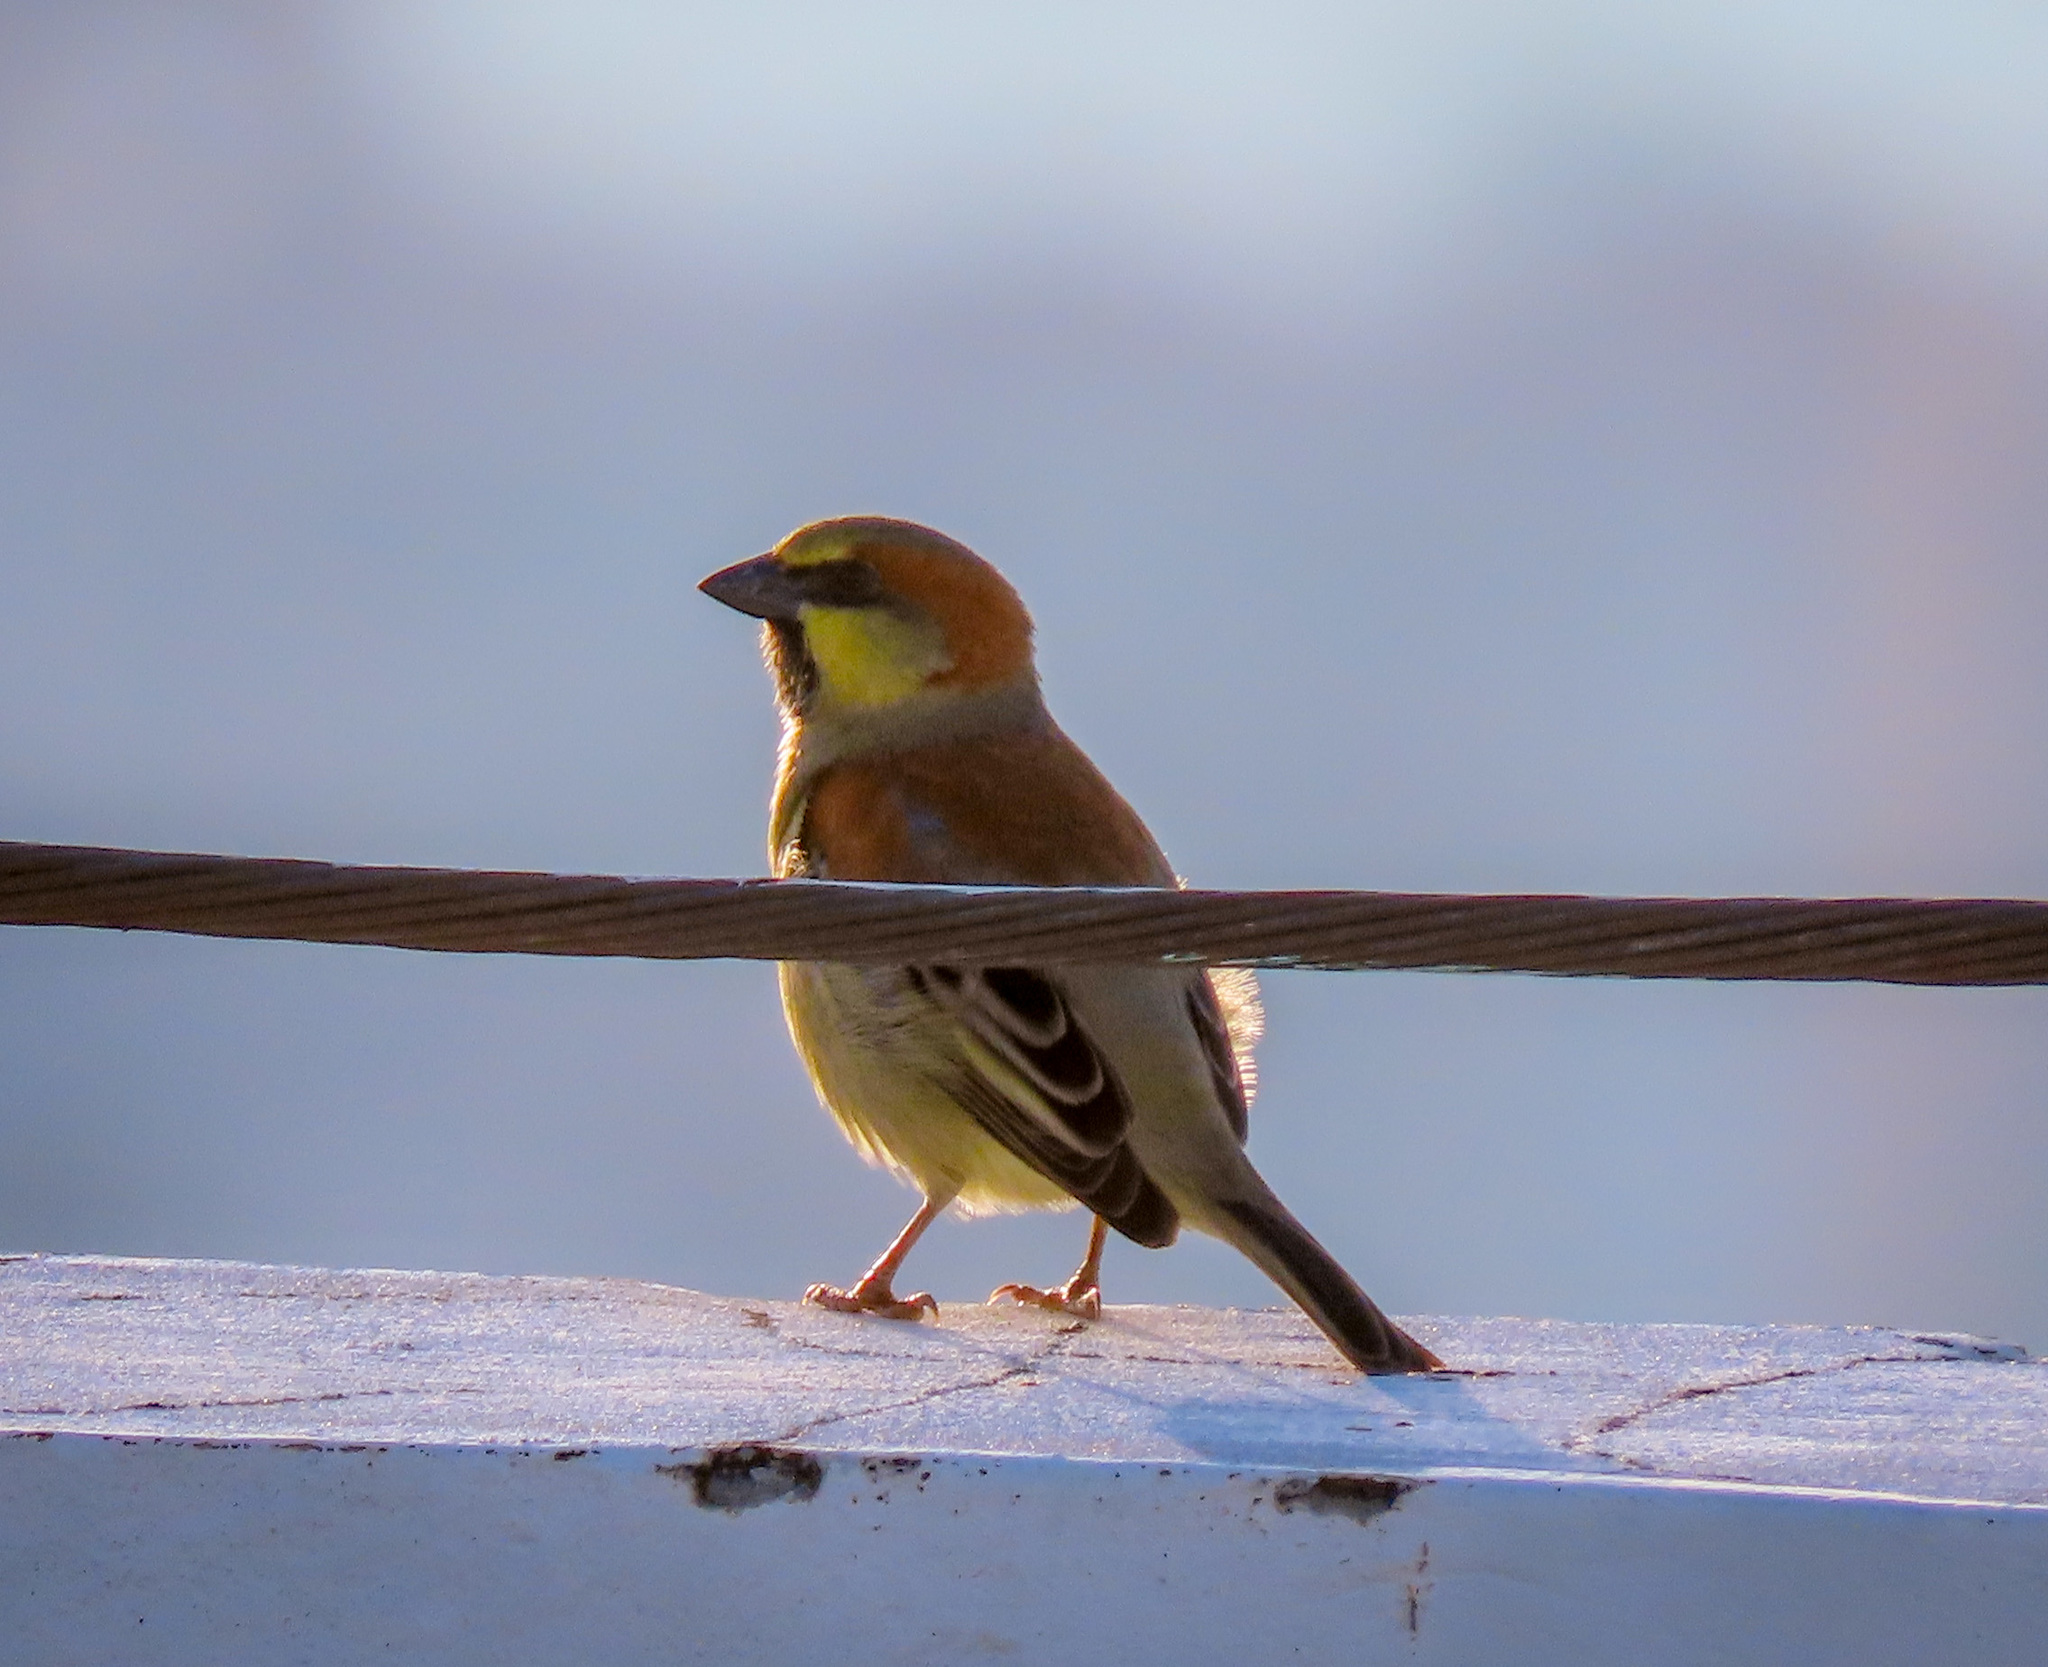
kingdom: Animalia
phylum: Chordata
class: Aves
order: Passeriformes
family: Passeridae
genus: Passer
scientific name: Passer flaveolus
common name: Plain-backed sparrow
